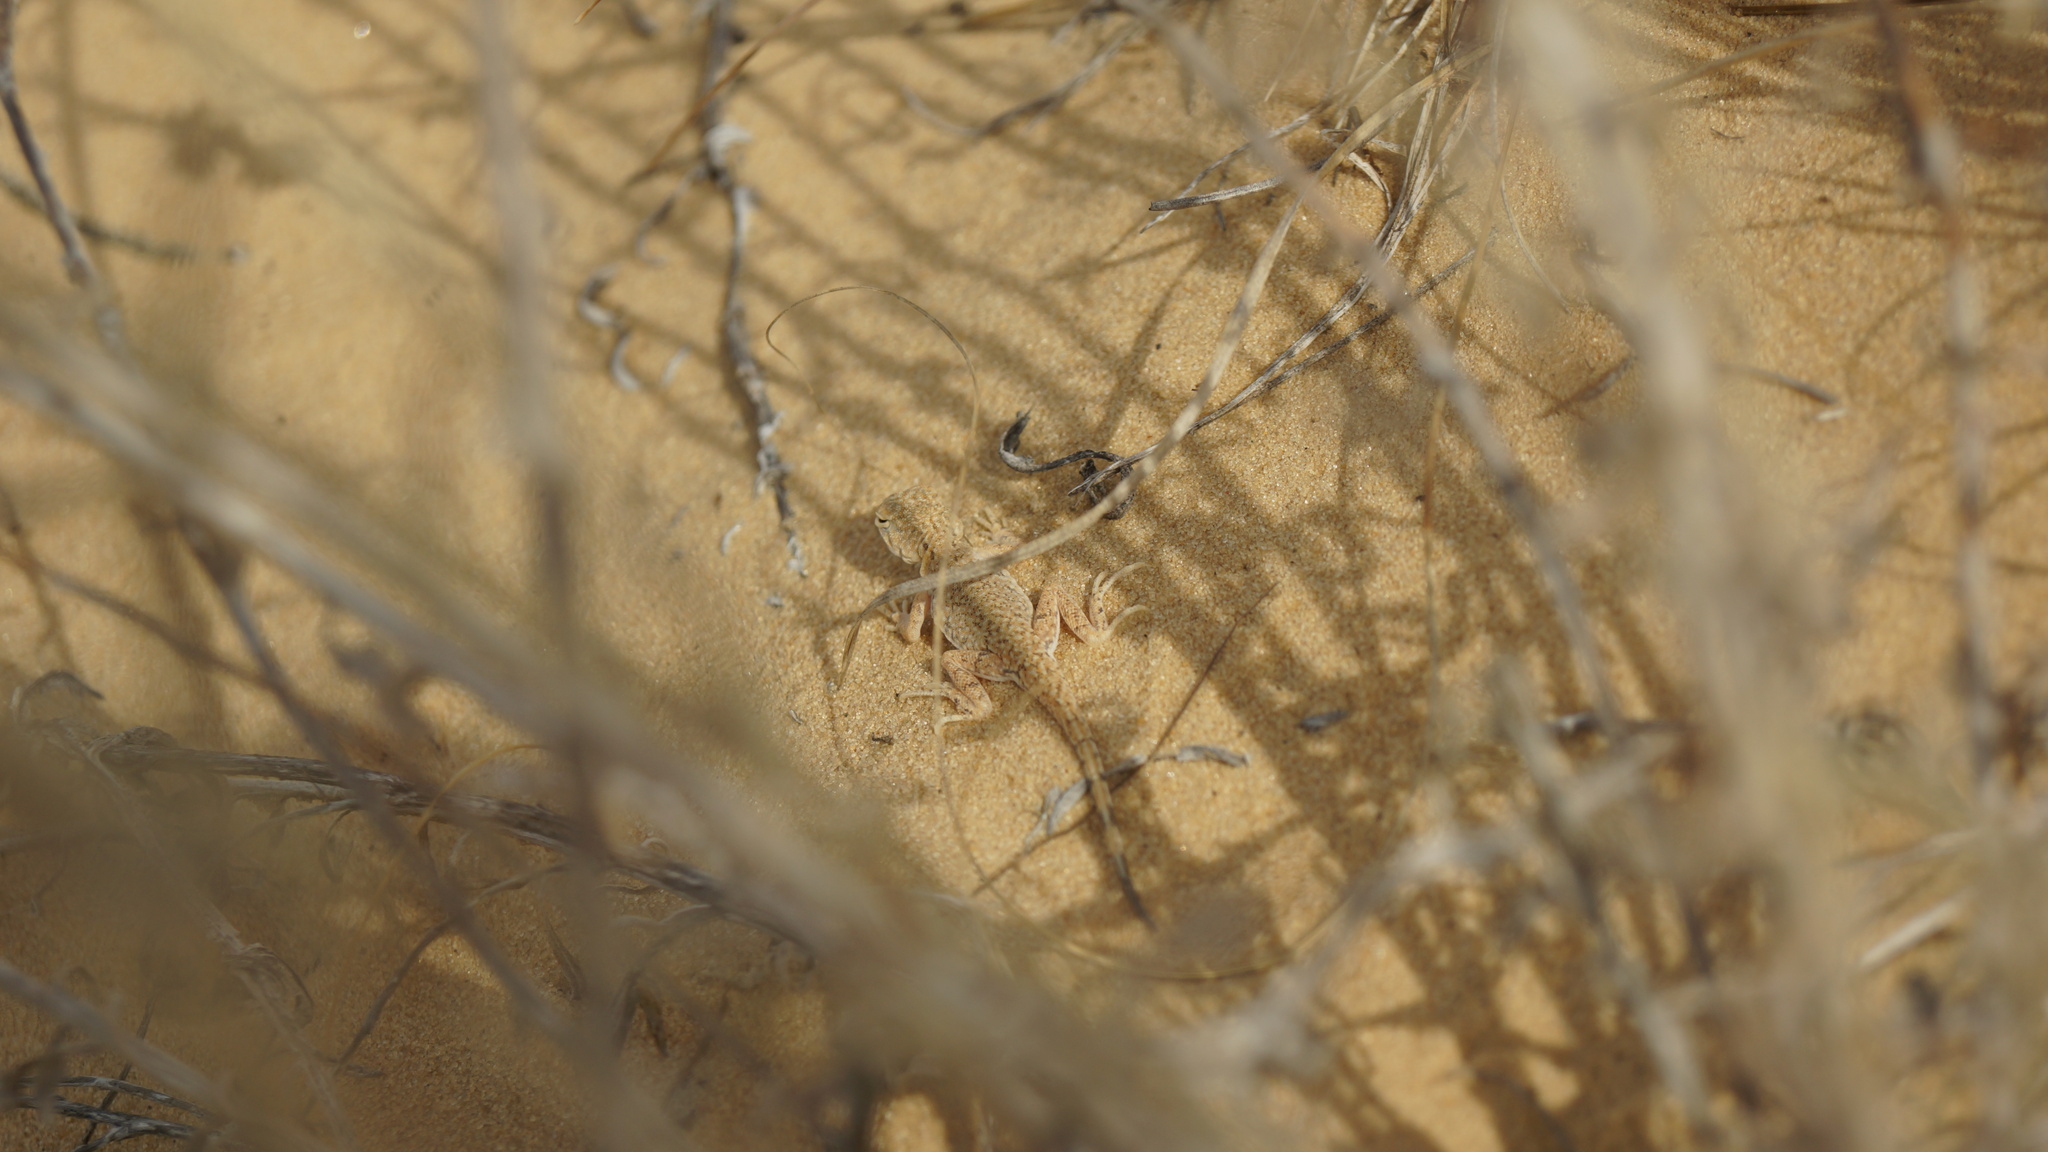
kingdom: Animalia
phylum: Chordata
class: Squamata
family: Agamidae
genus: Phrynocephalus
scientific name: Phrynocephalus guttatus
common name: Spotted toadhead agama
